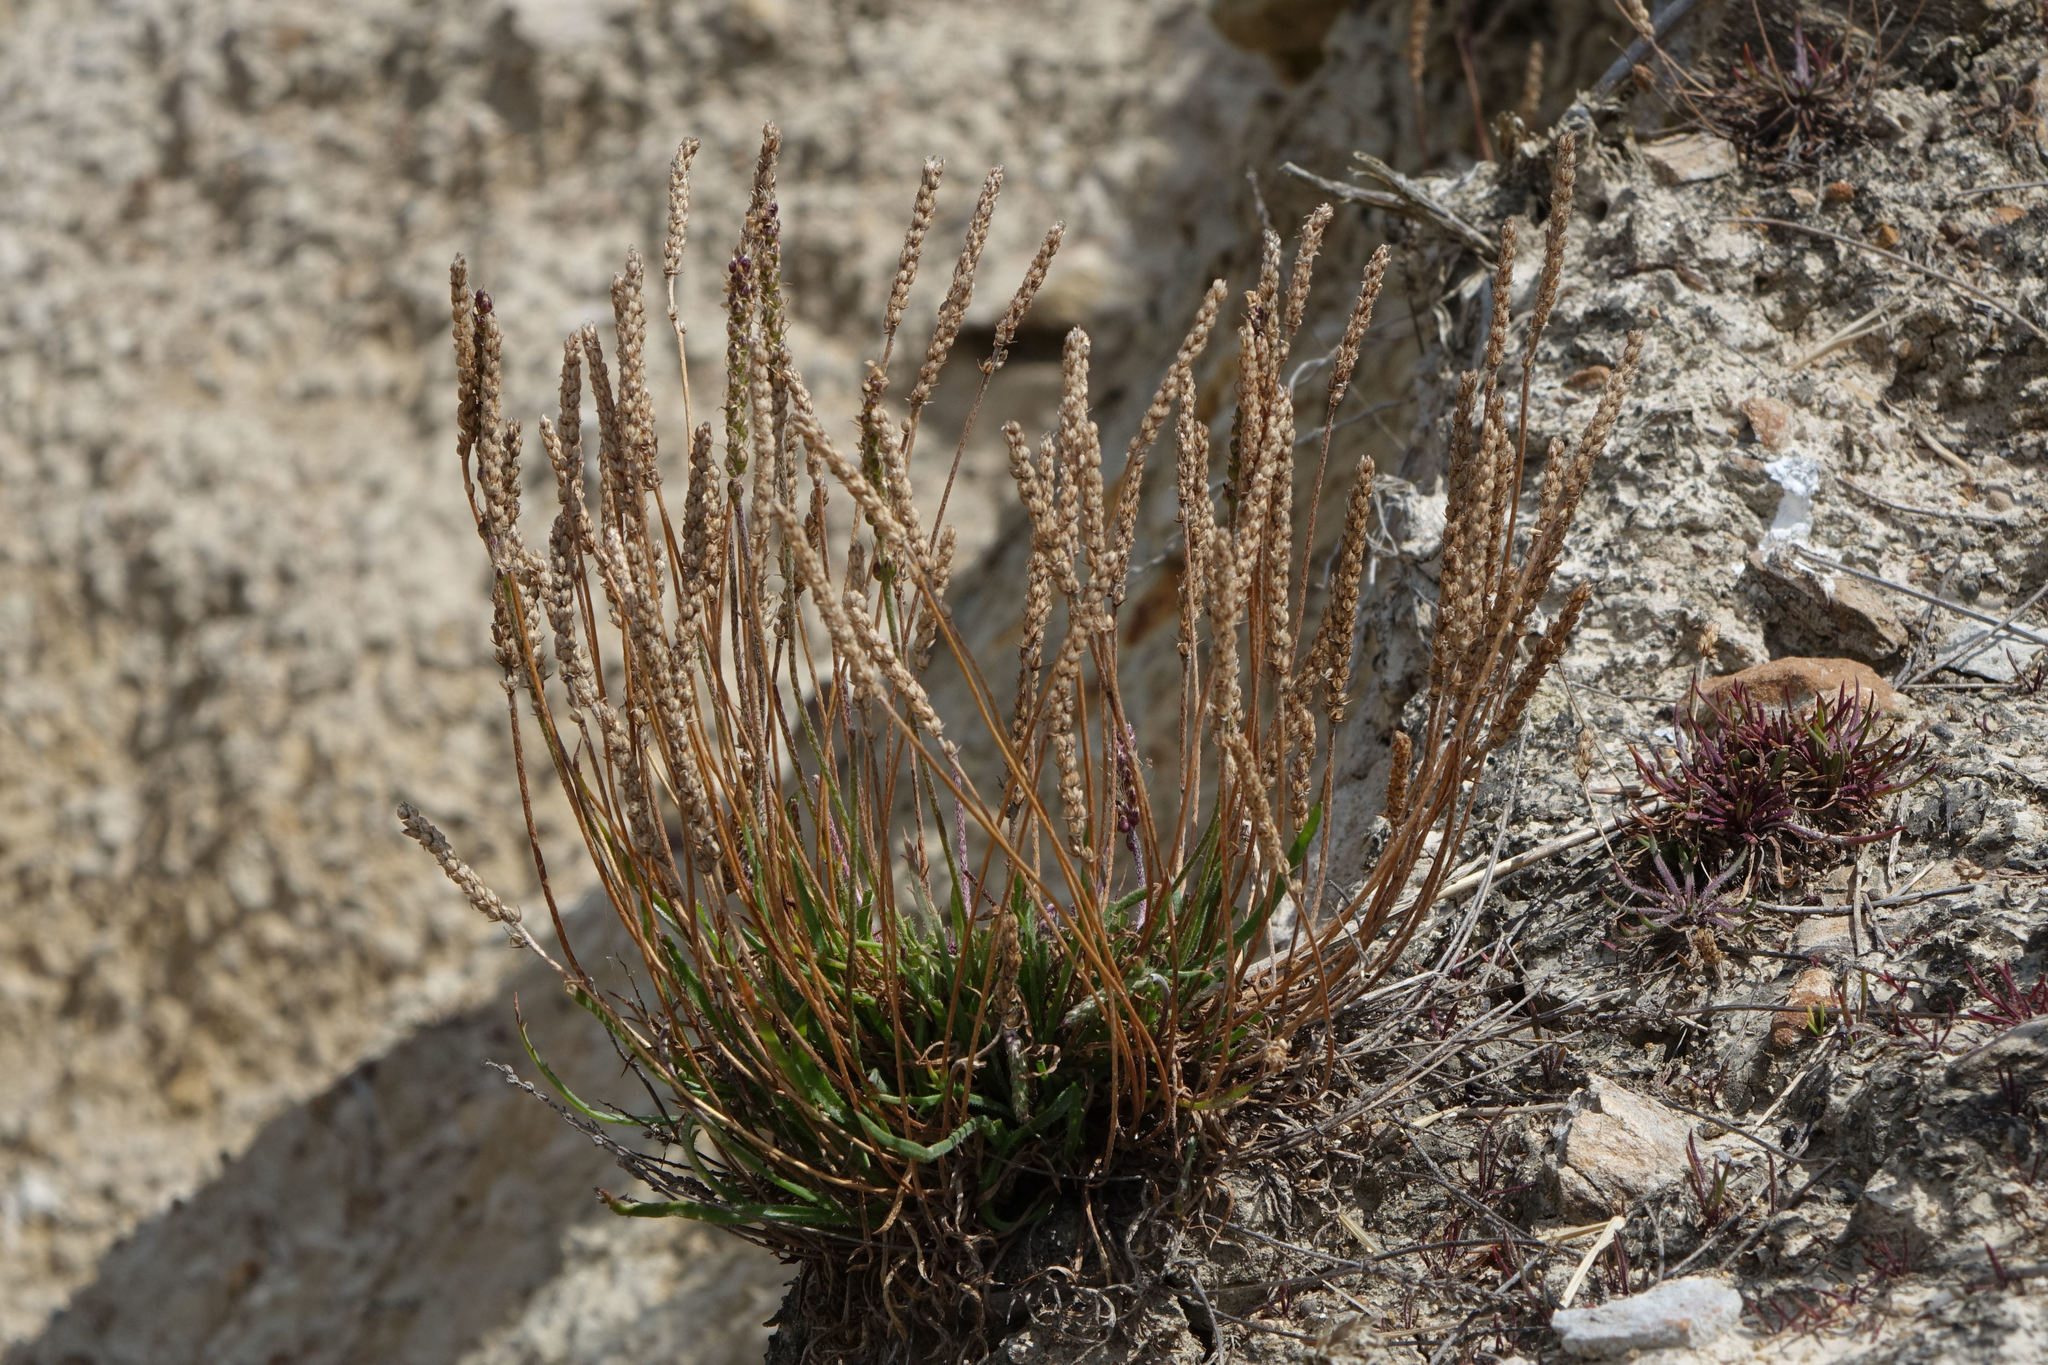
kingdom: Plantae
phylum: Tracheophyta
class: Magnoliopsida
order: Lamiales
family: Plantaginaceae
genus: Plantago
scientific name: Plantago coronopus
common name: Buck's-horn plantain
